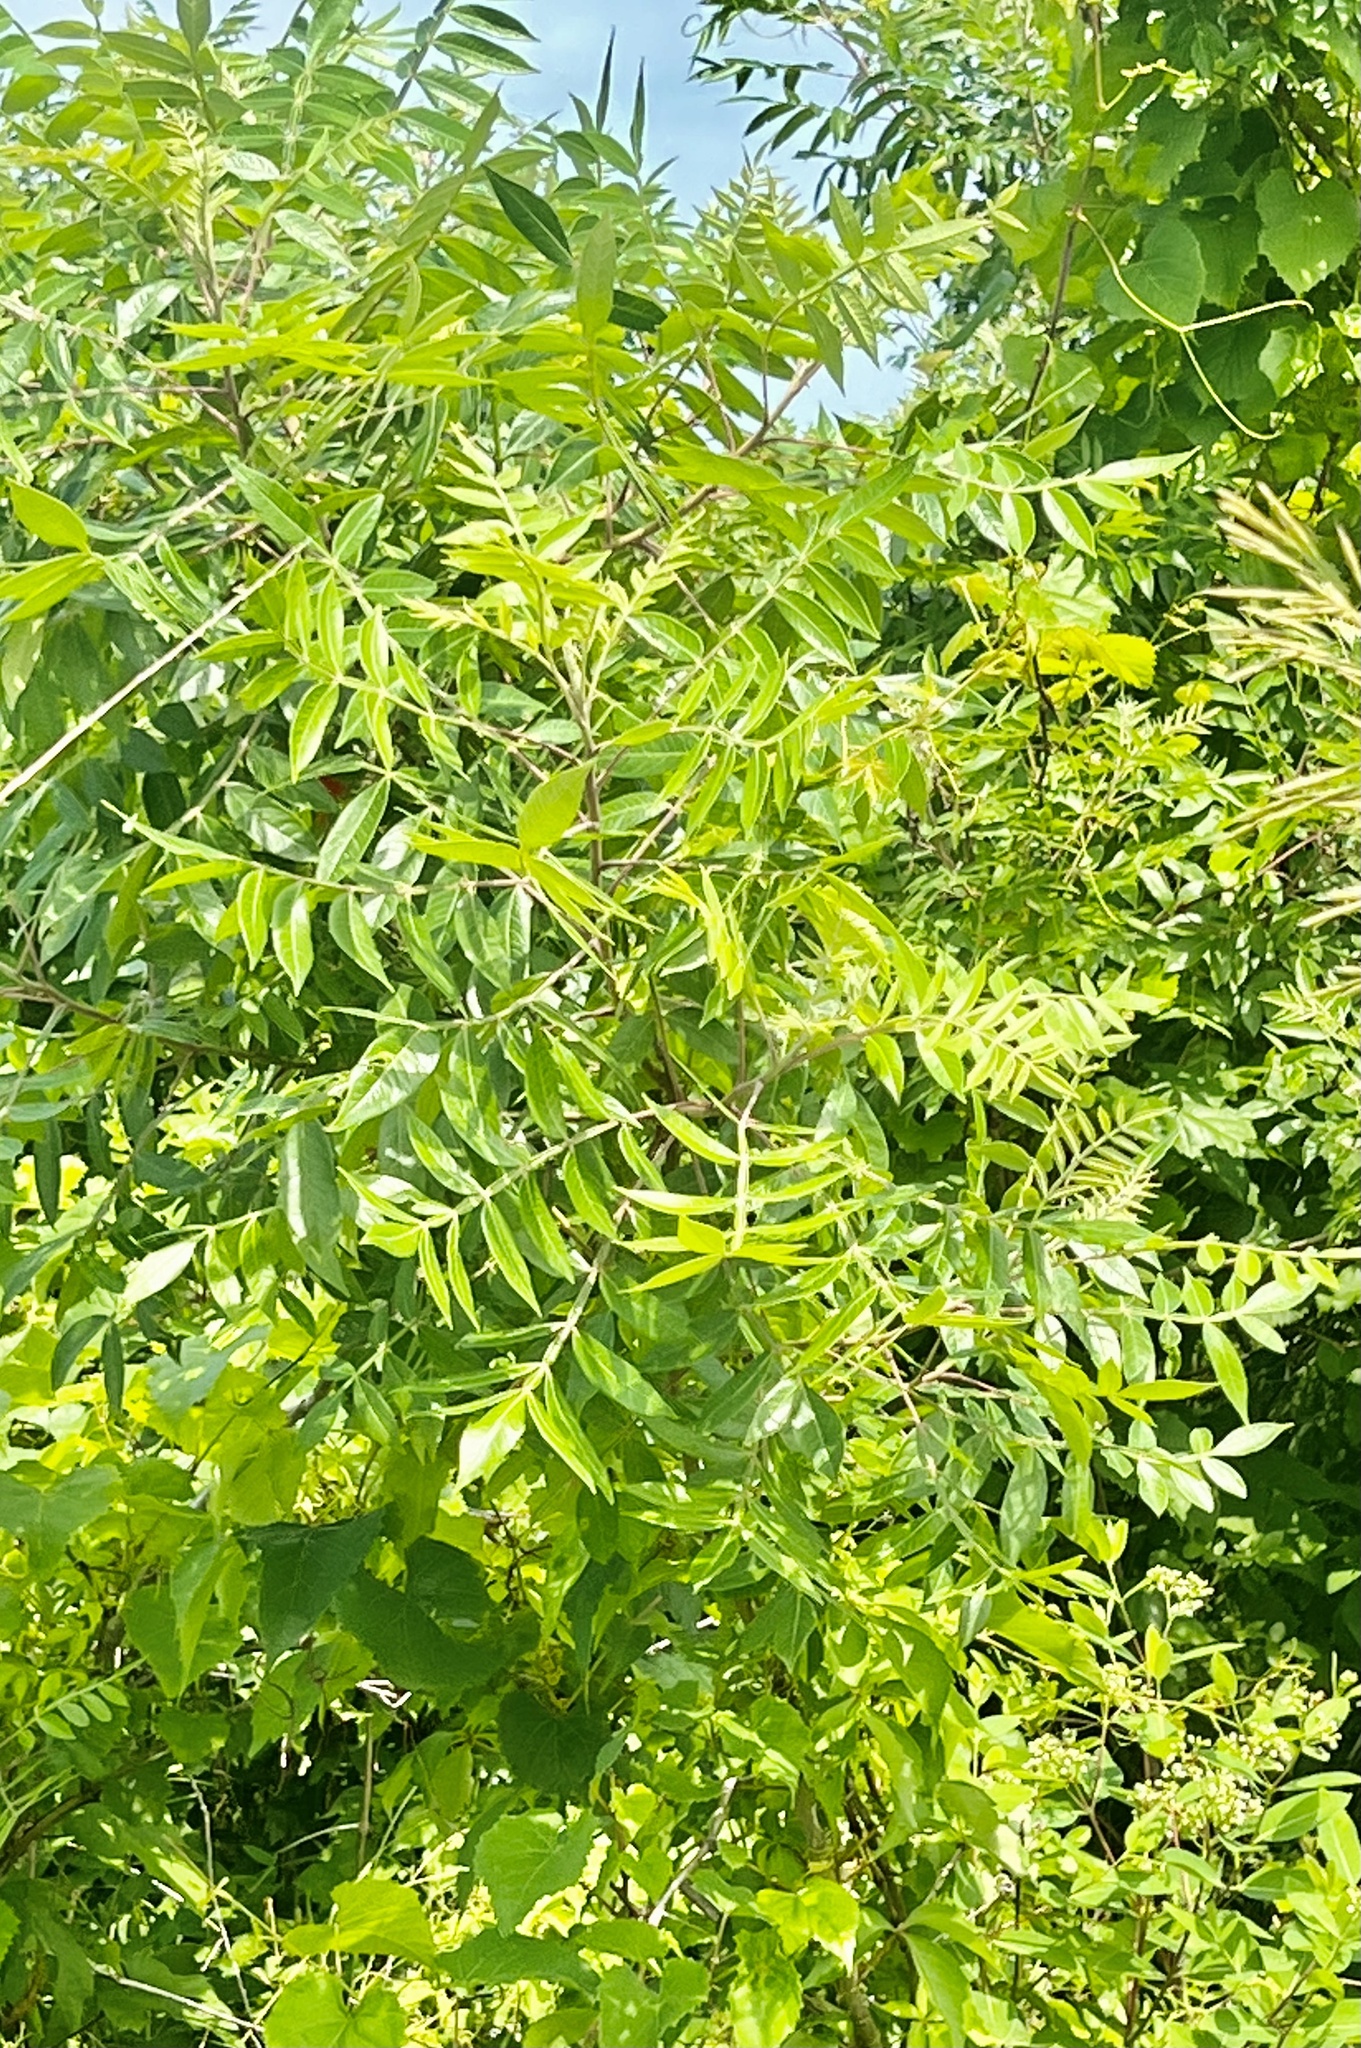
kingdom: Plantae
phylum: Tracheophyta
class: Magnoliopsida
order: Sapindales
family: Anacardiaceae
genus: Rhus
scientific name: Rhus copallina
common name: Shining sumac
